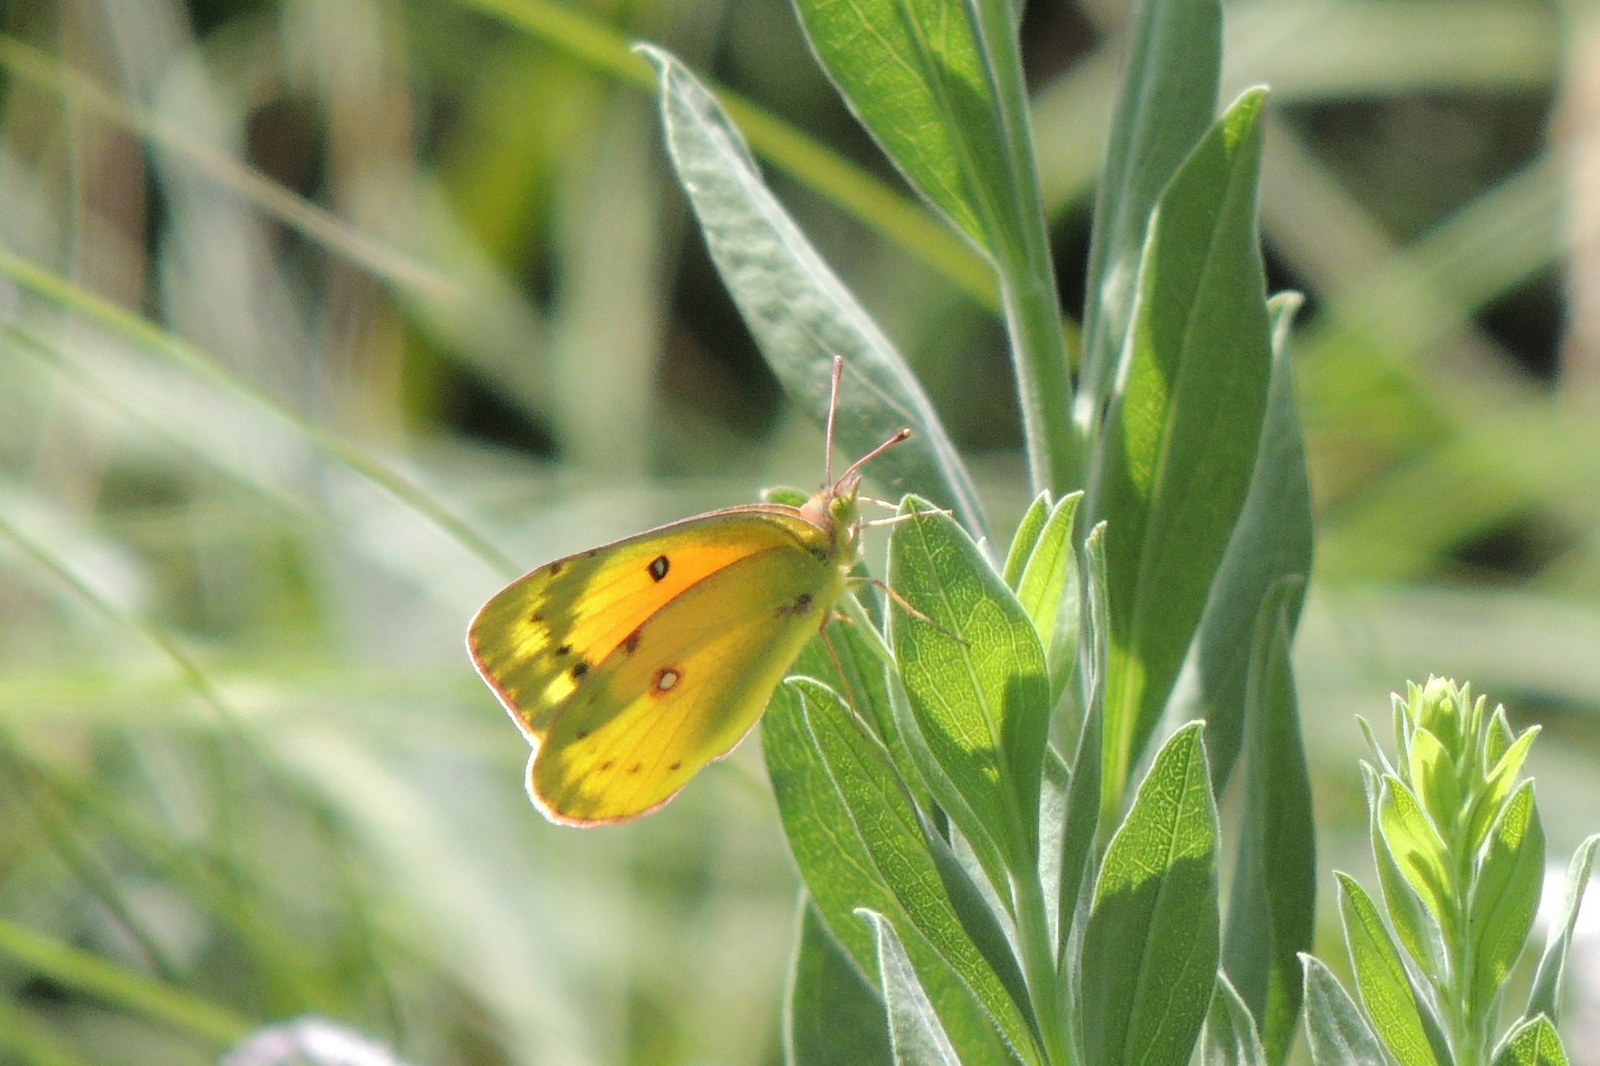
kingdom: Animalia
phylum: Arthropoda
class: Insecta
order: Lepidoptera
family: Pieridae
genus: Colias
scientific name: Colias eurytheme
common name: Alfalfa butterfly
